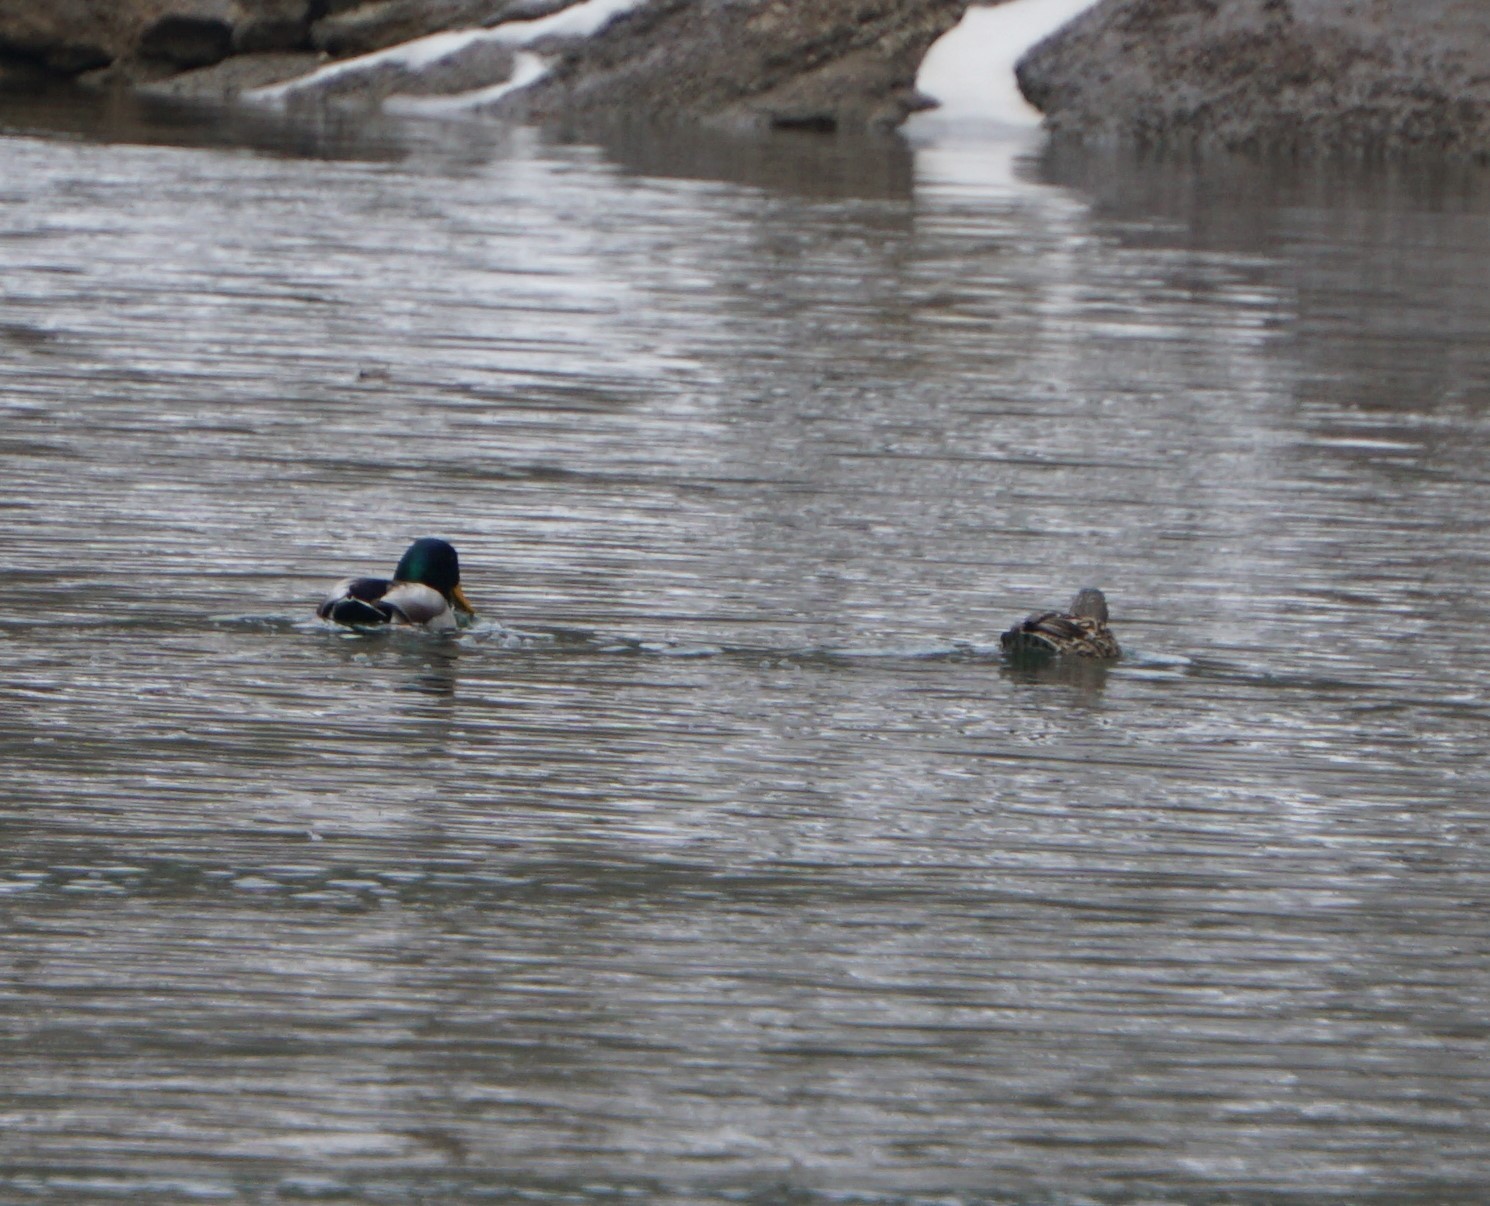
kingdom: Animalia
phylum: Chordata
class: Aves
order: Anseriformes
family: Anatidae
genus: Anas
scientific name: Anas platyrhynchos
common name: Mallard
